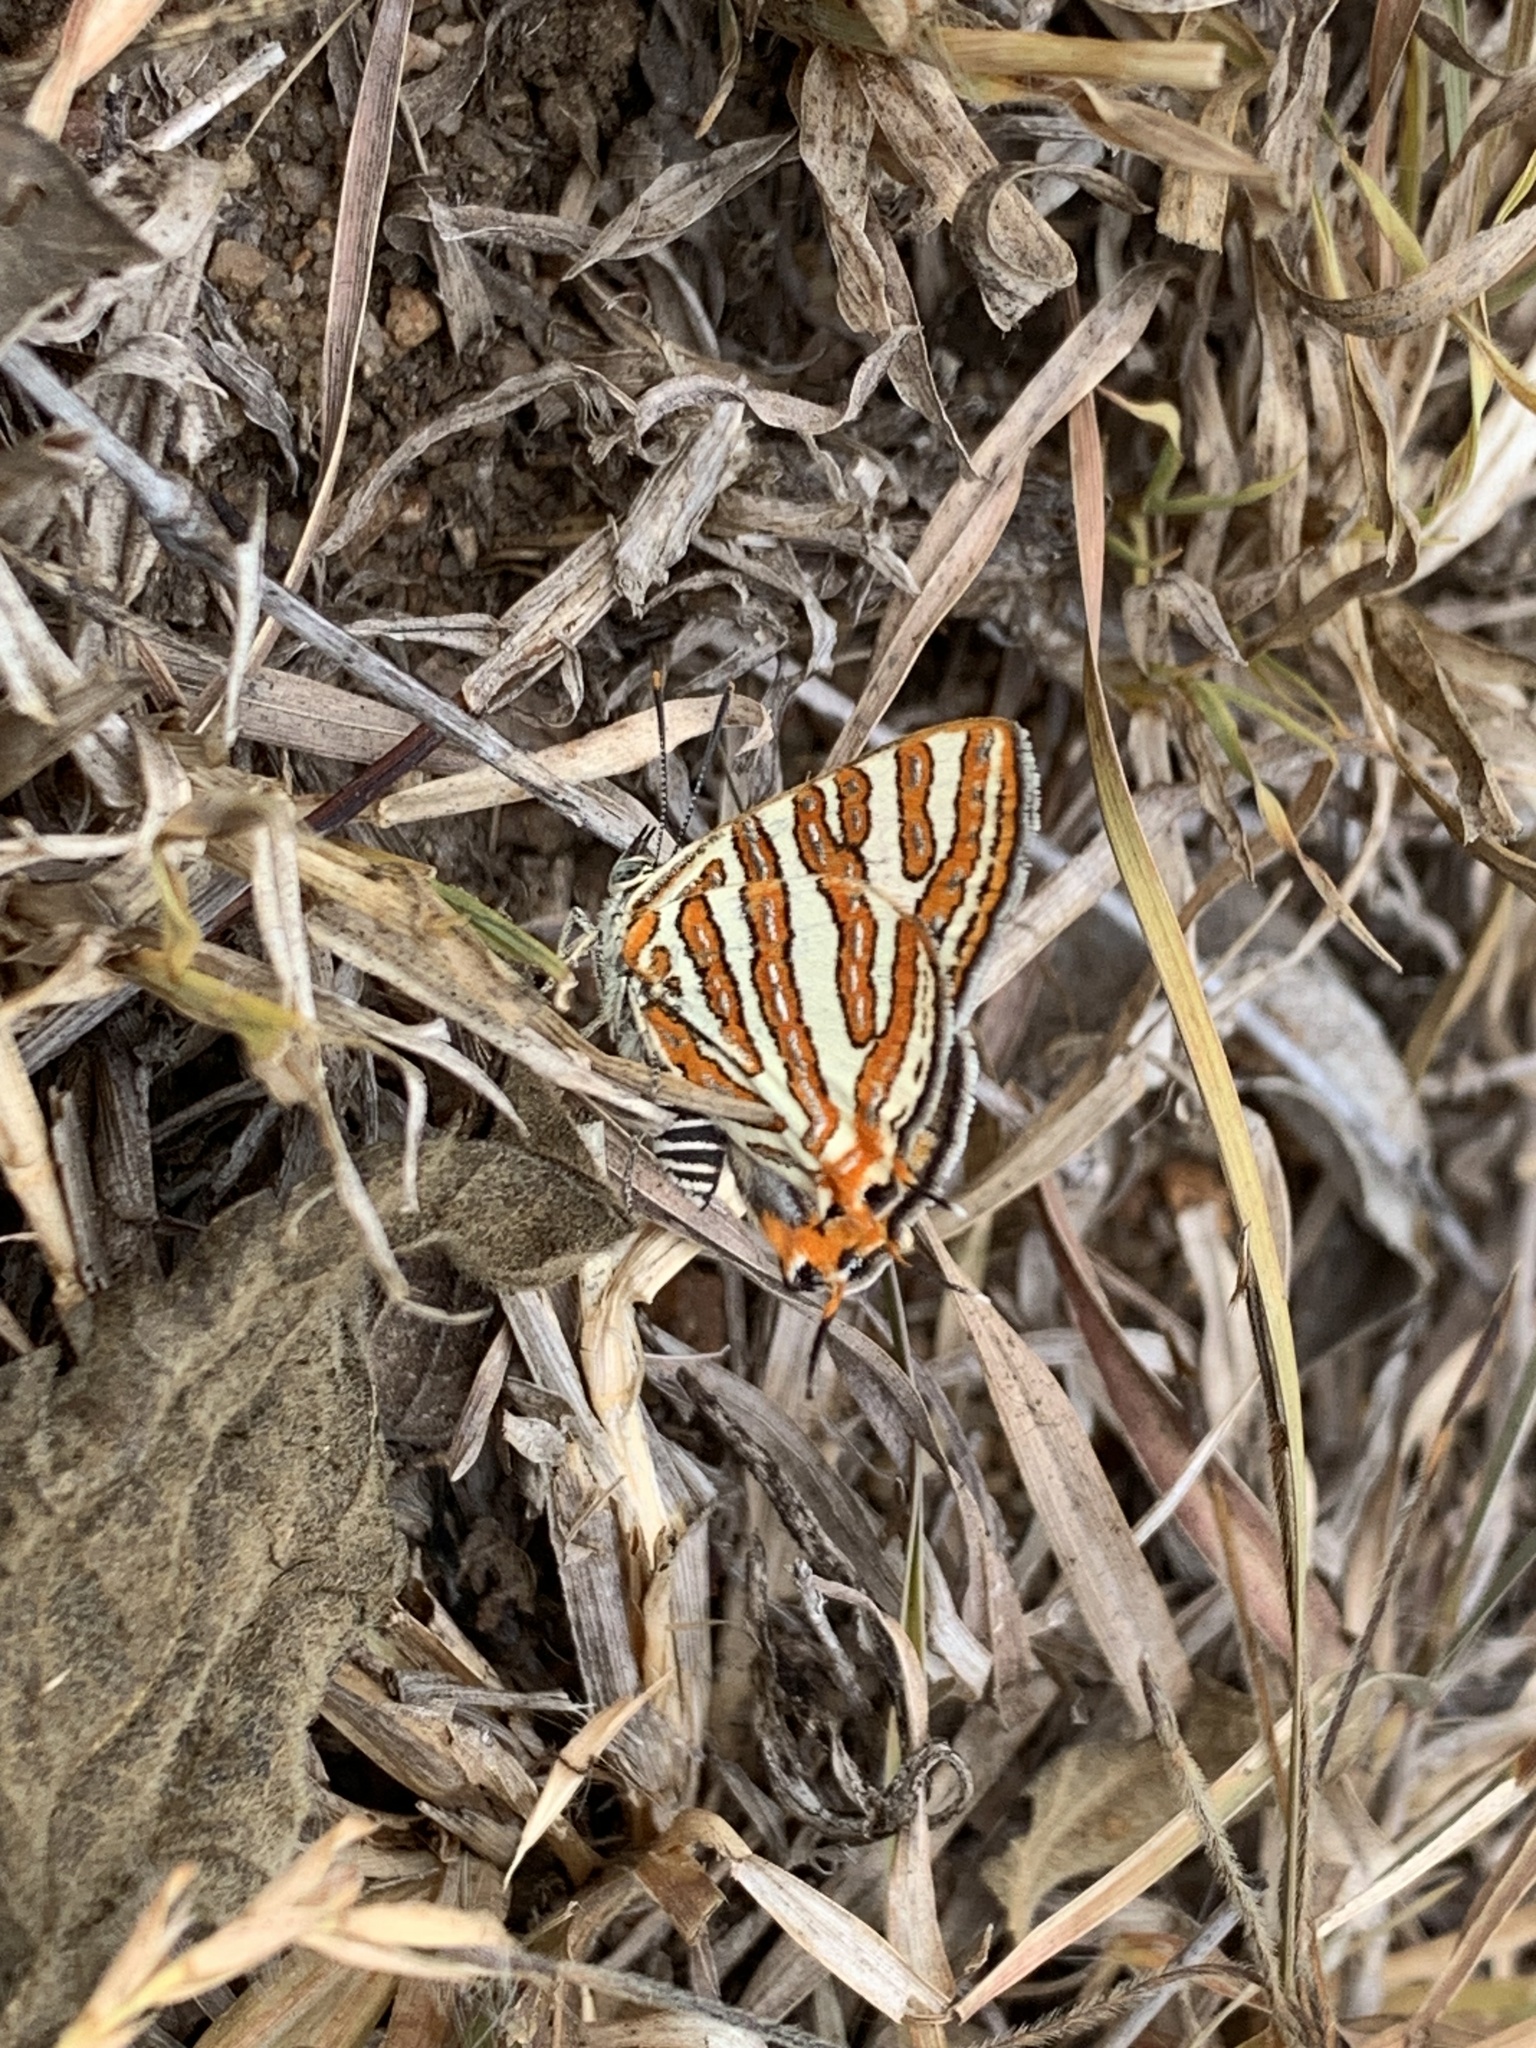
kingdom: Animalia
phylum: Arthropoda
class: Insecta
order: Lepidoptera
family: Lycaenidae
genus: Cigaritis
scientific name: Cigaritis vulcanus
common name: Common silverline
